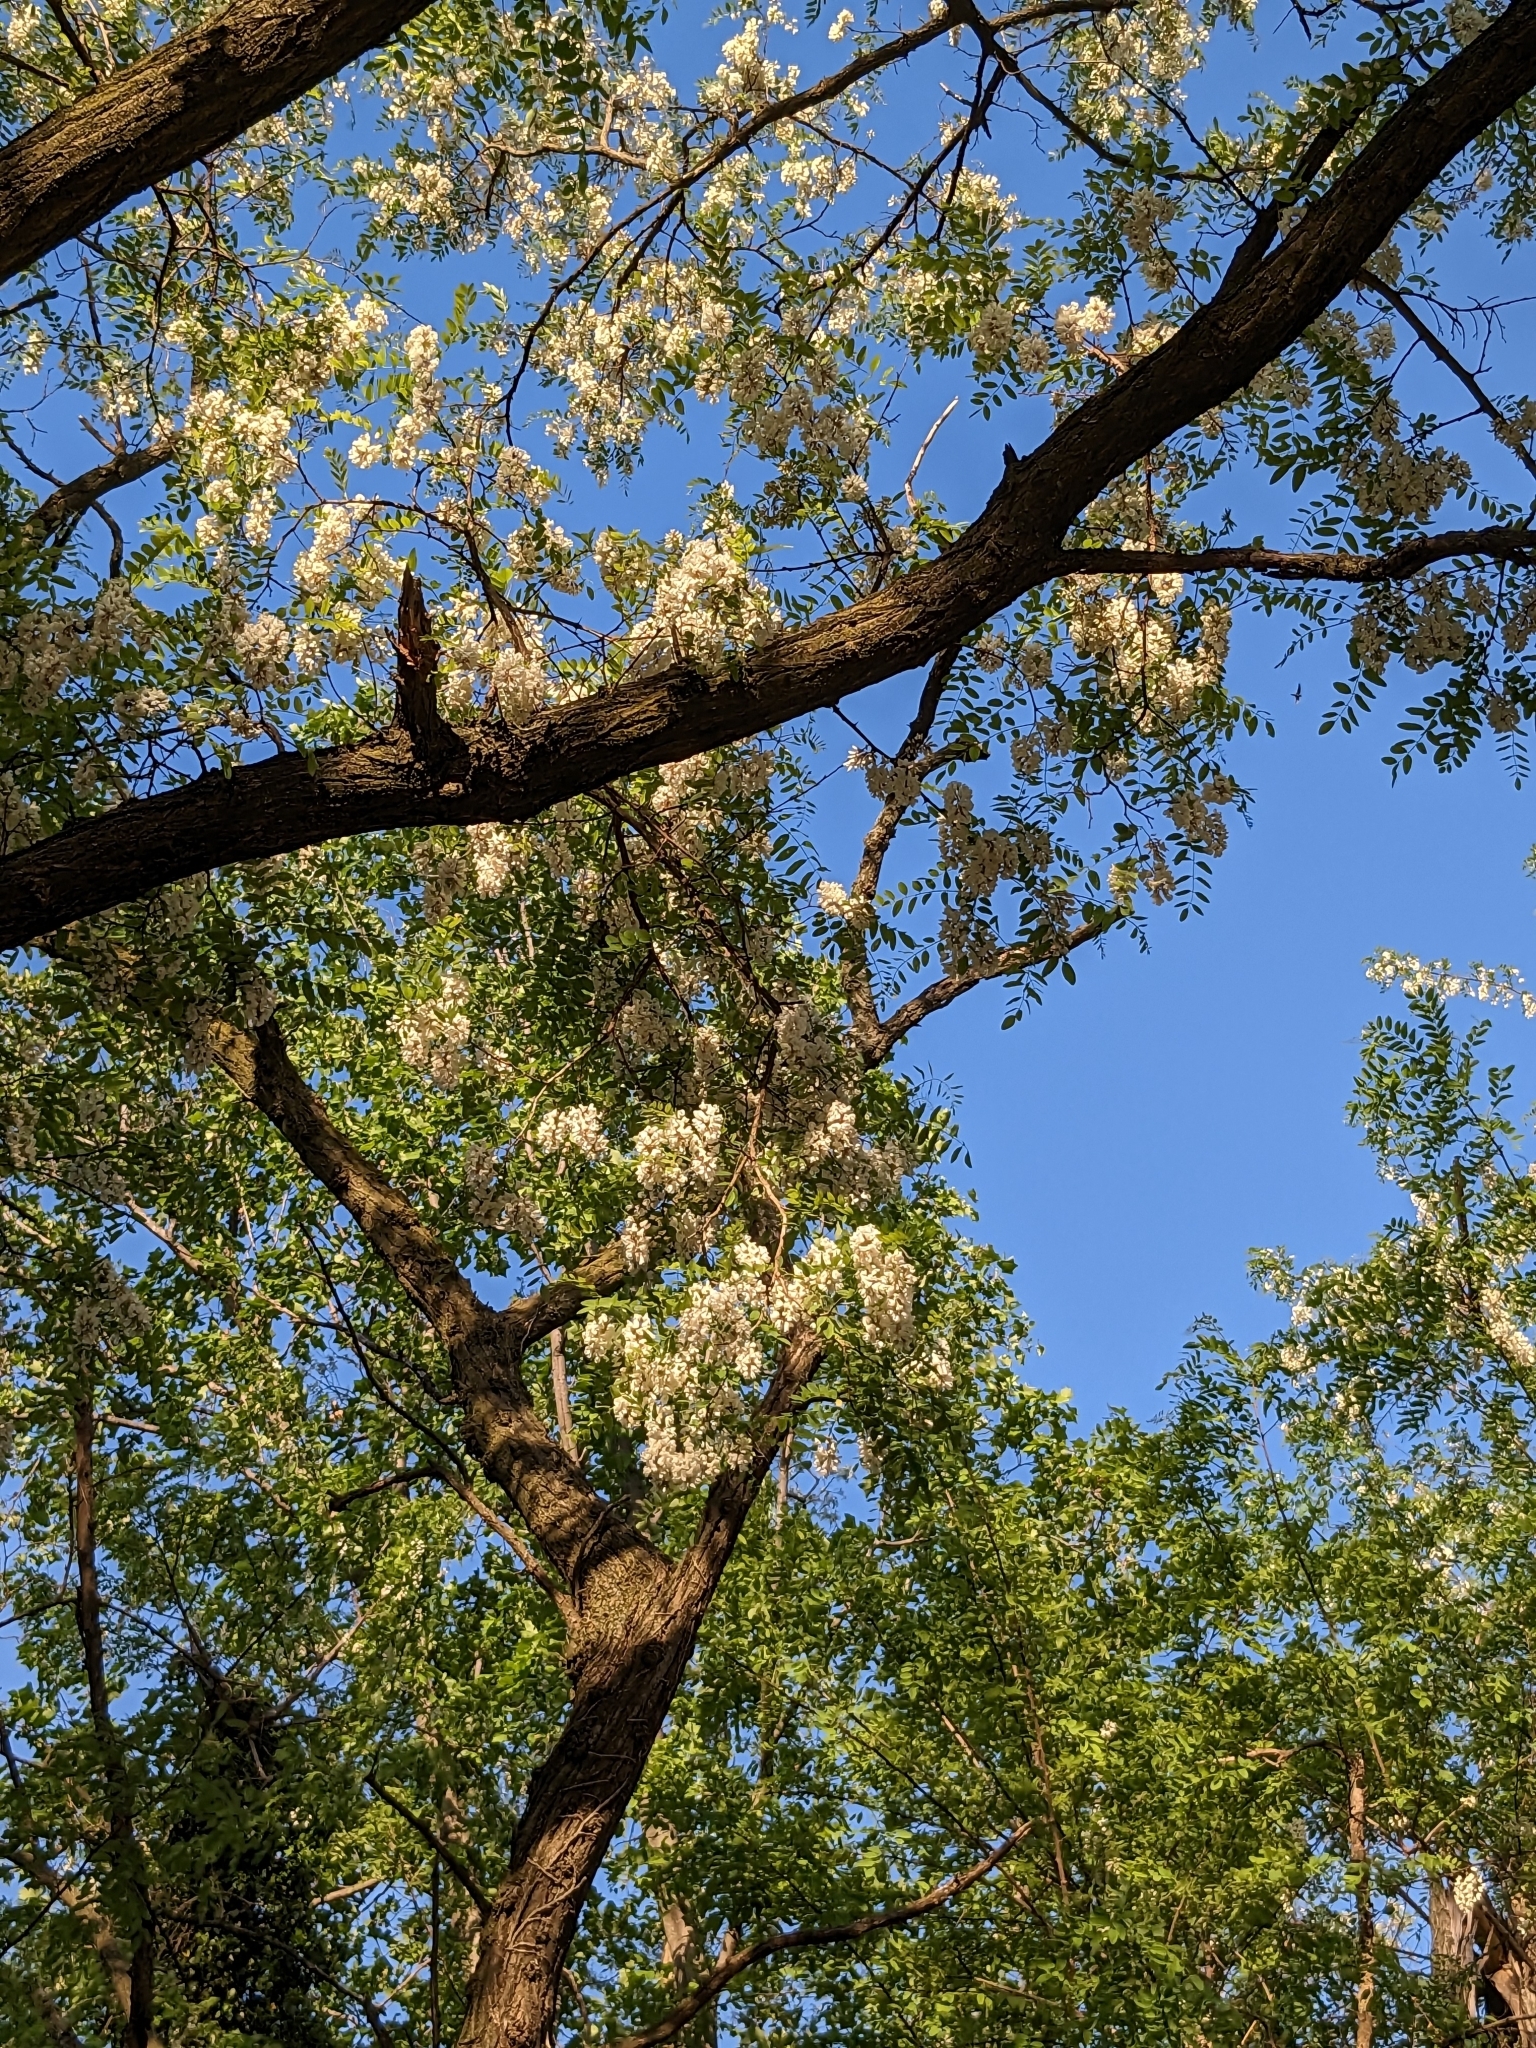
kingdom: Plantae
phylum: Tracheophyta
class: Magnoliopsida
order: Fabales
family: Fabaceae
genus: Robinia
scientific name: Robinia pseudoacacia
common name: Black locust
